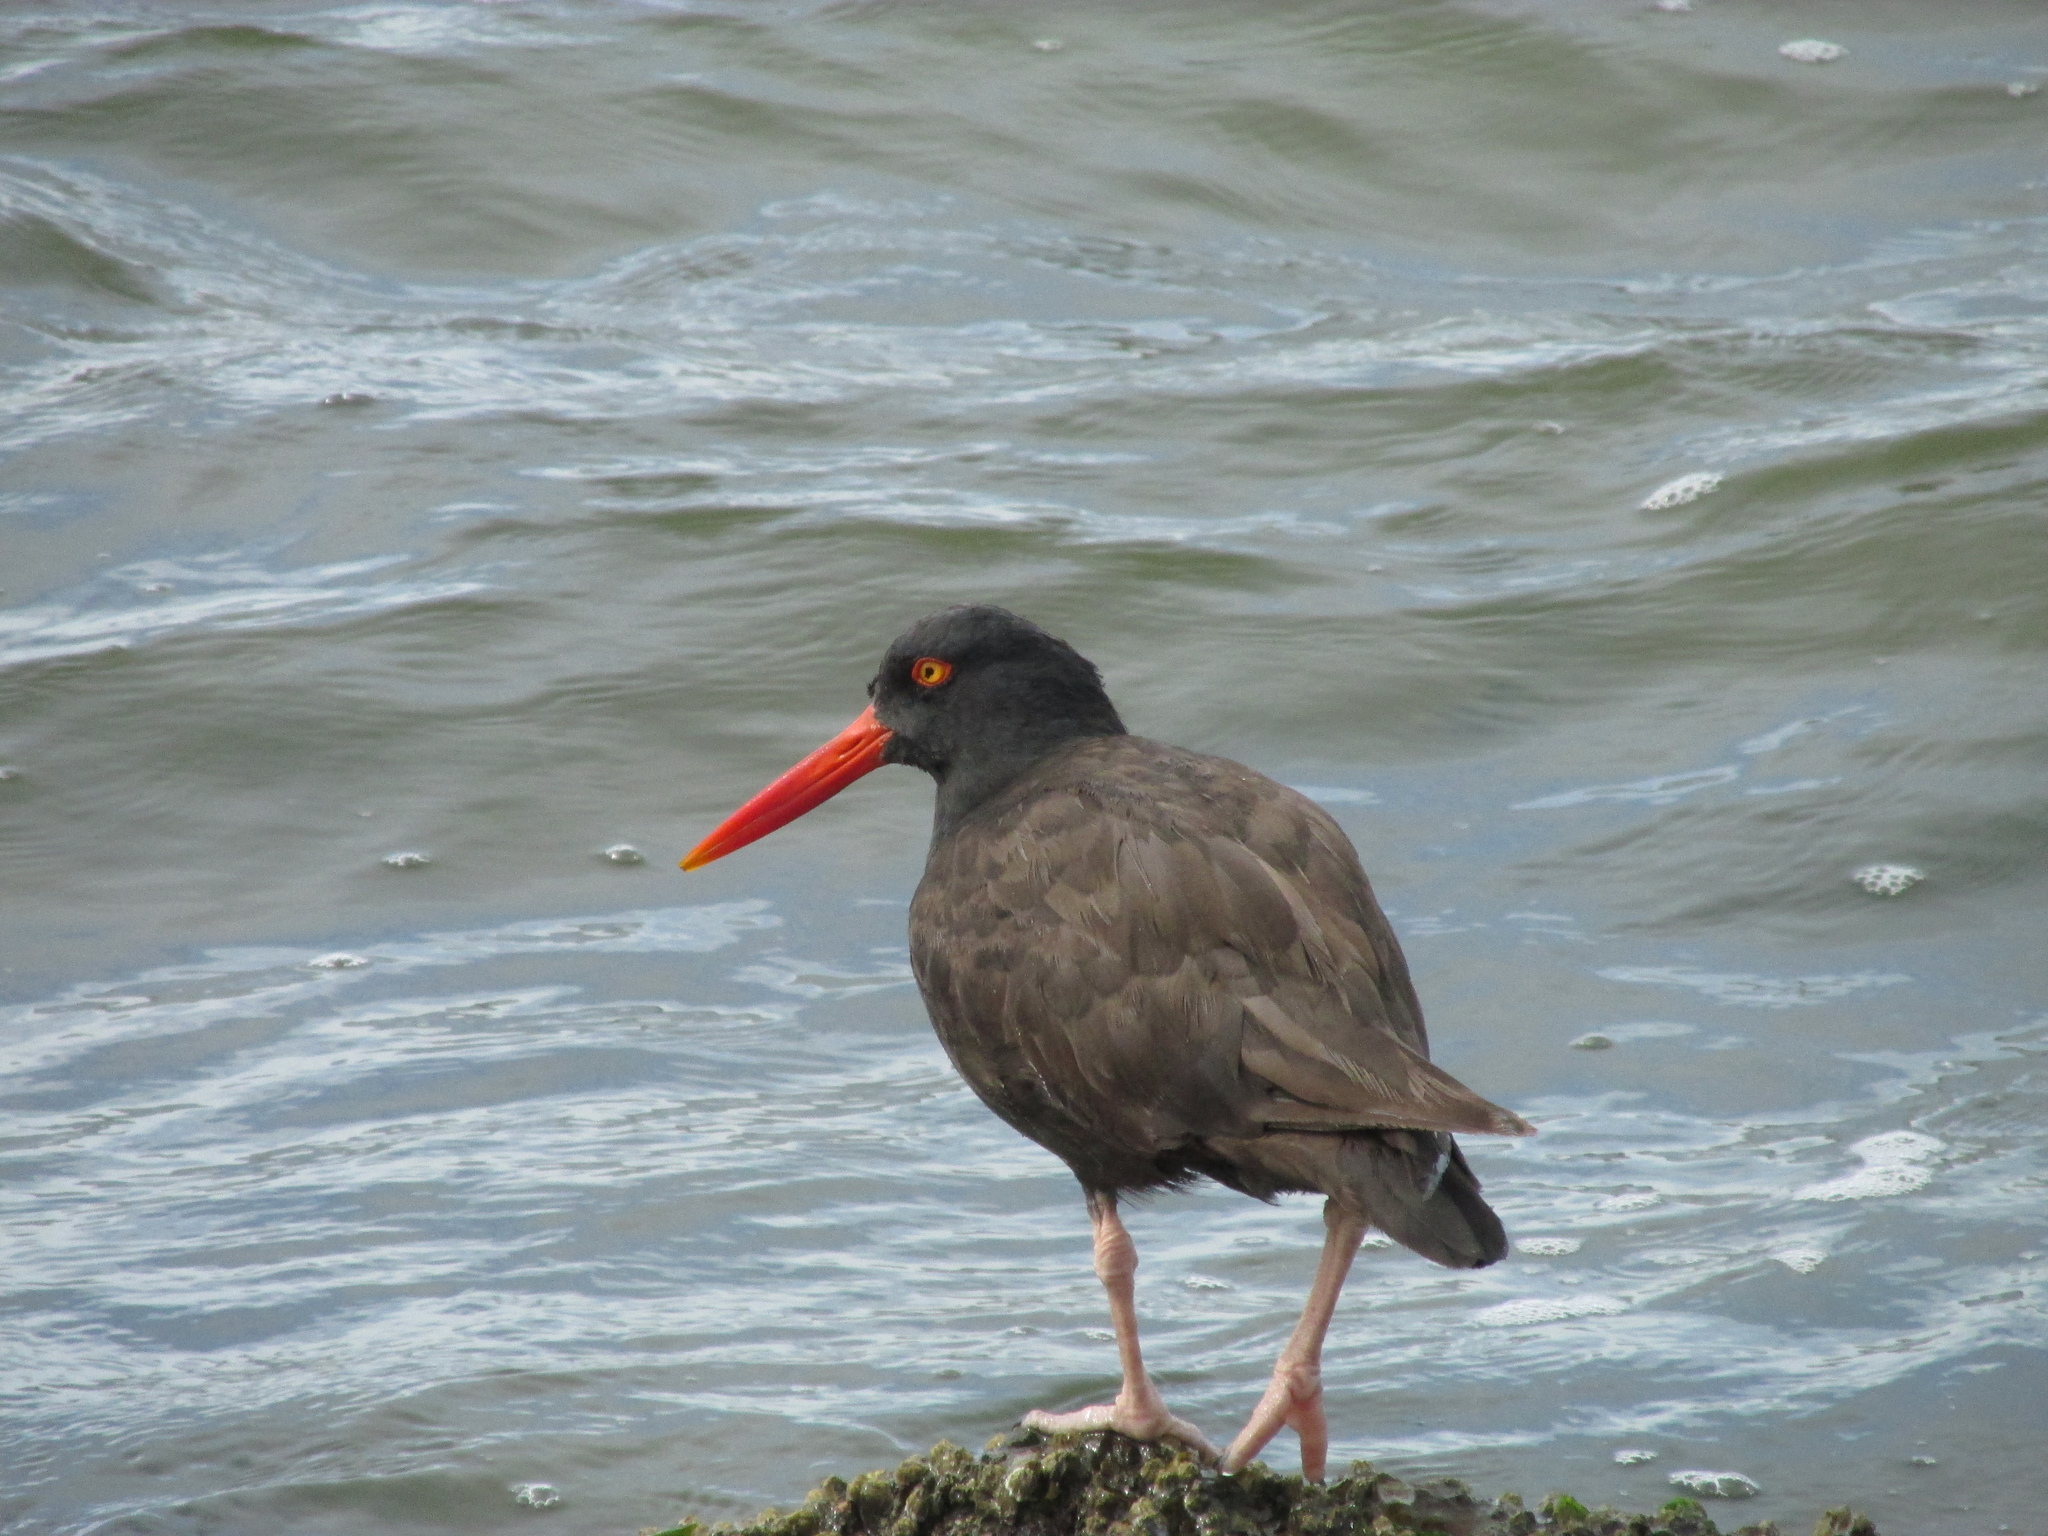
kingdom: Animalia
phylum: Chordata
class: Aves
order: Charadriiformes
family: Haematopodidae
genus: Haematopus
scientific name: Haematopus bachmani
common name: Black oystercatcher
